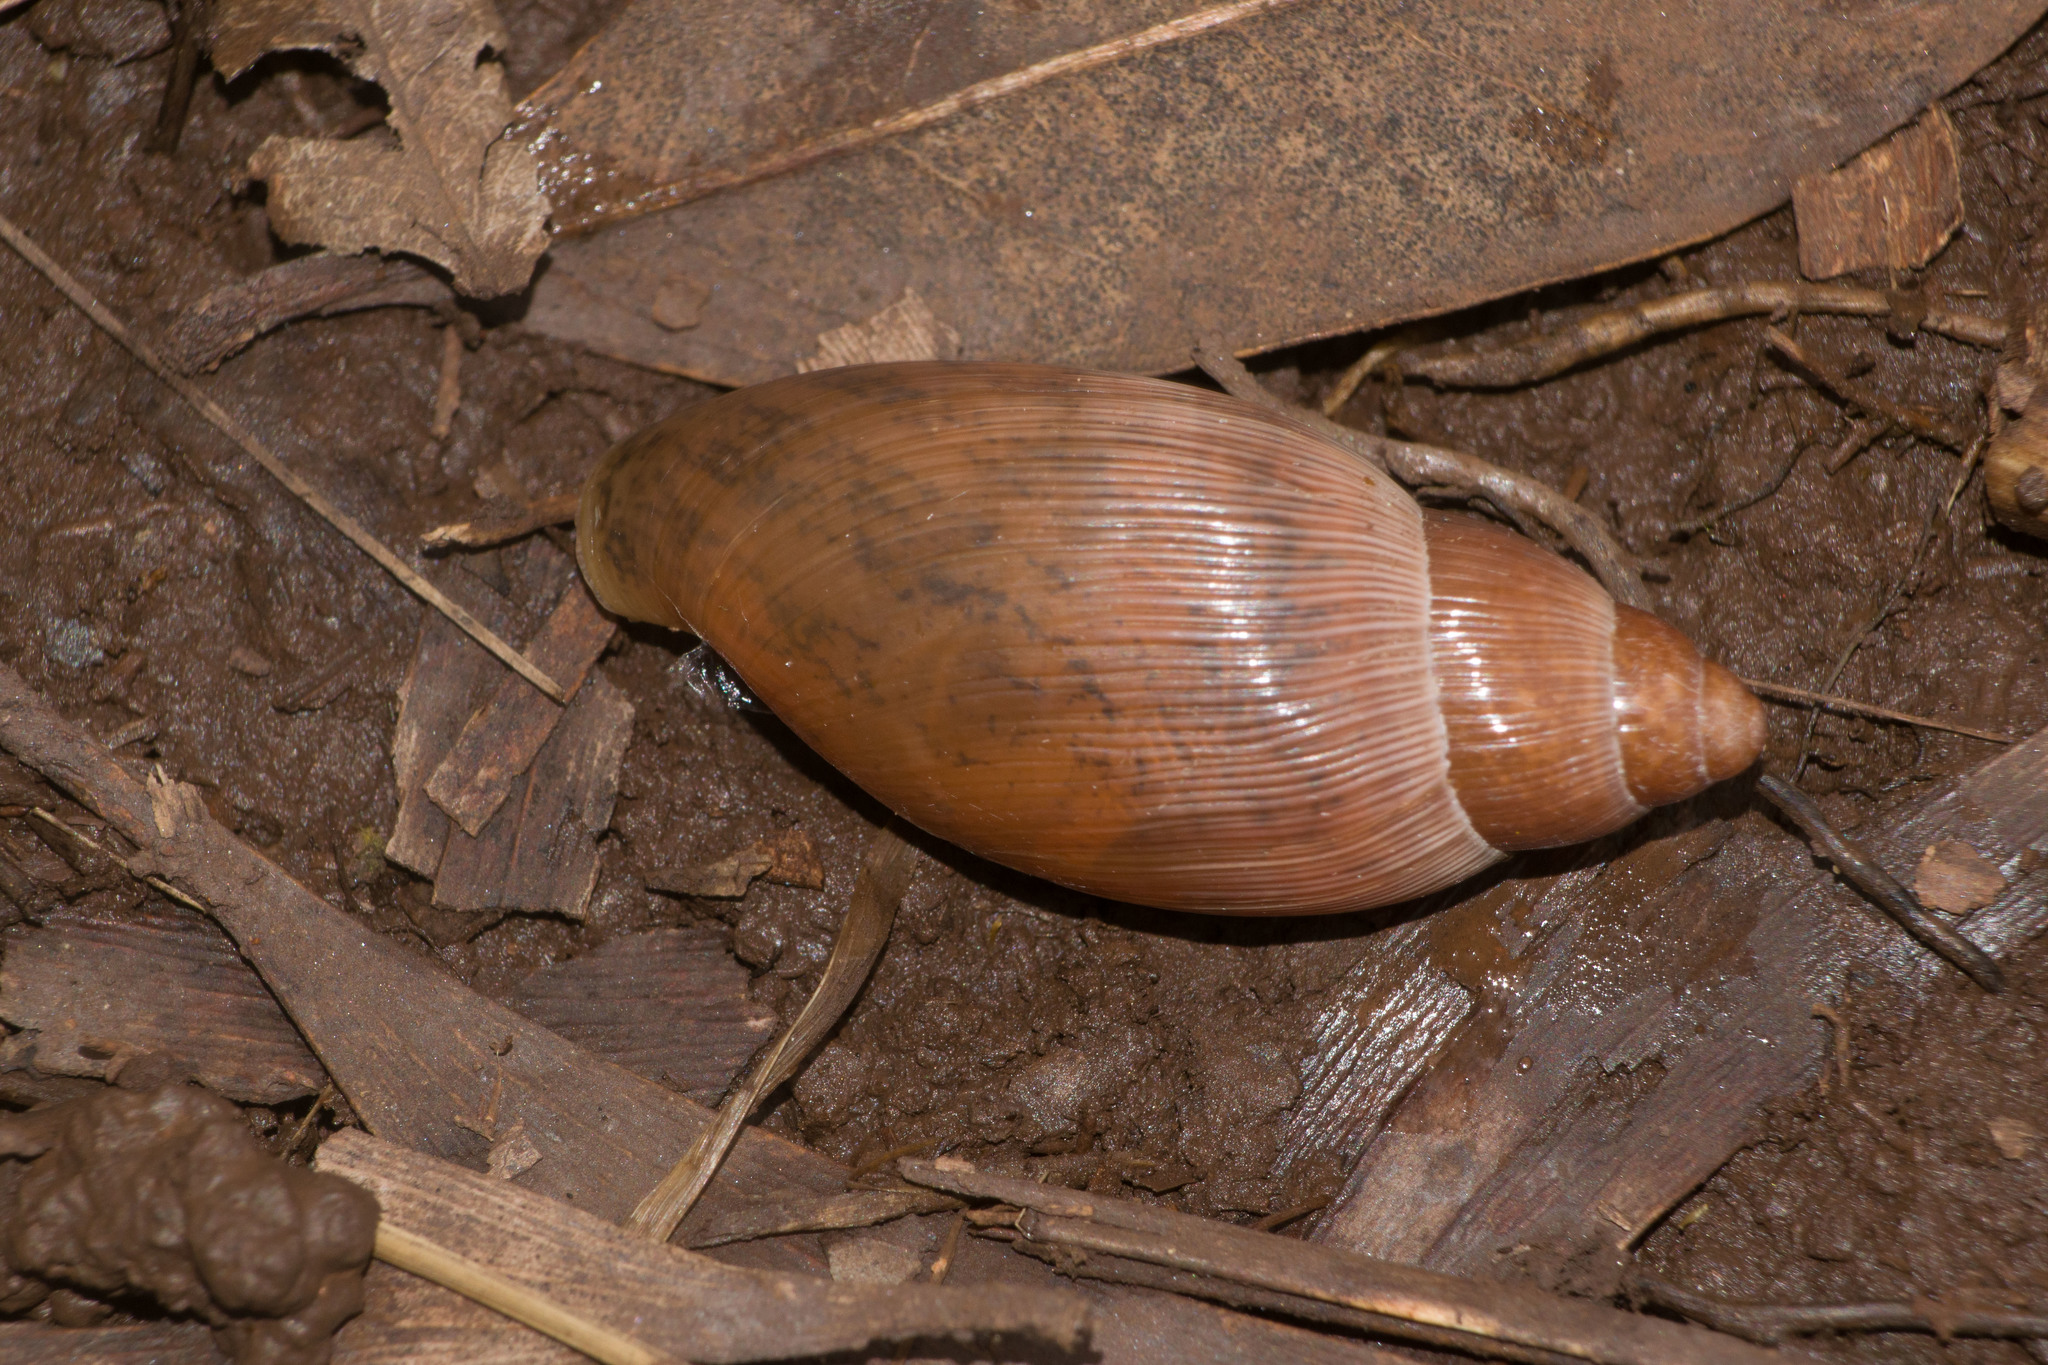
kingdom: Animalia
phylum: Mollusca
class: Gastropoda
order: Stylommatophora
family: Spiraxidae
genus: Euglandina
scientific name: Euglandina rosea
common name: Rosy wolfsnail
